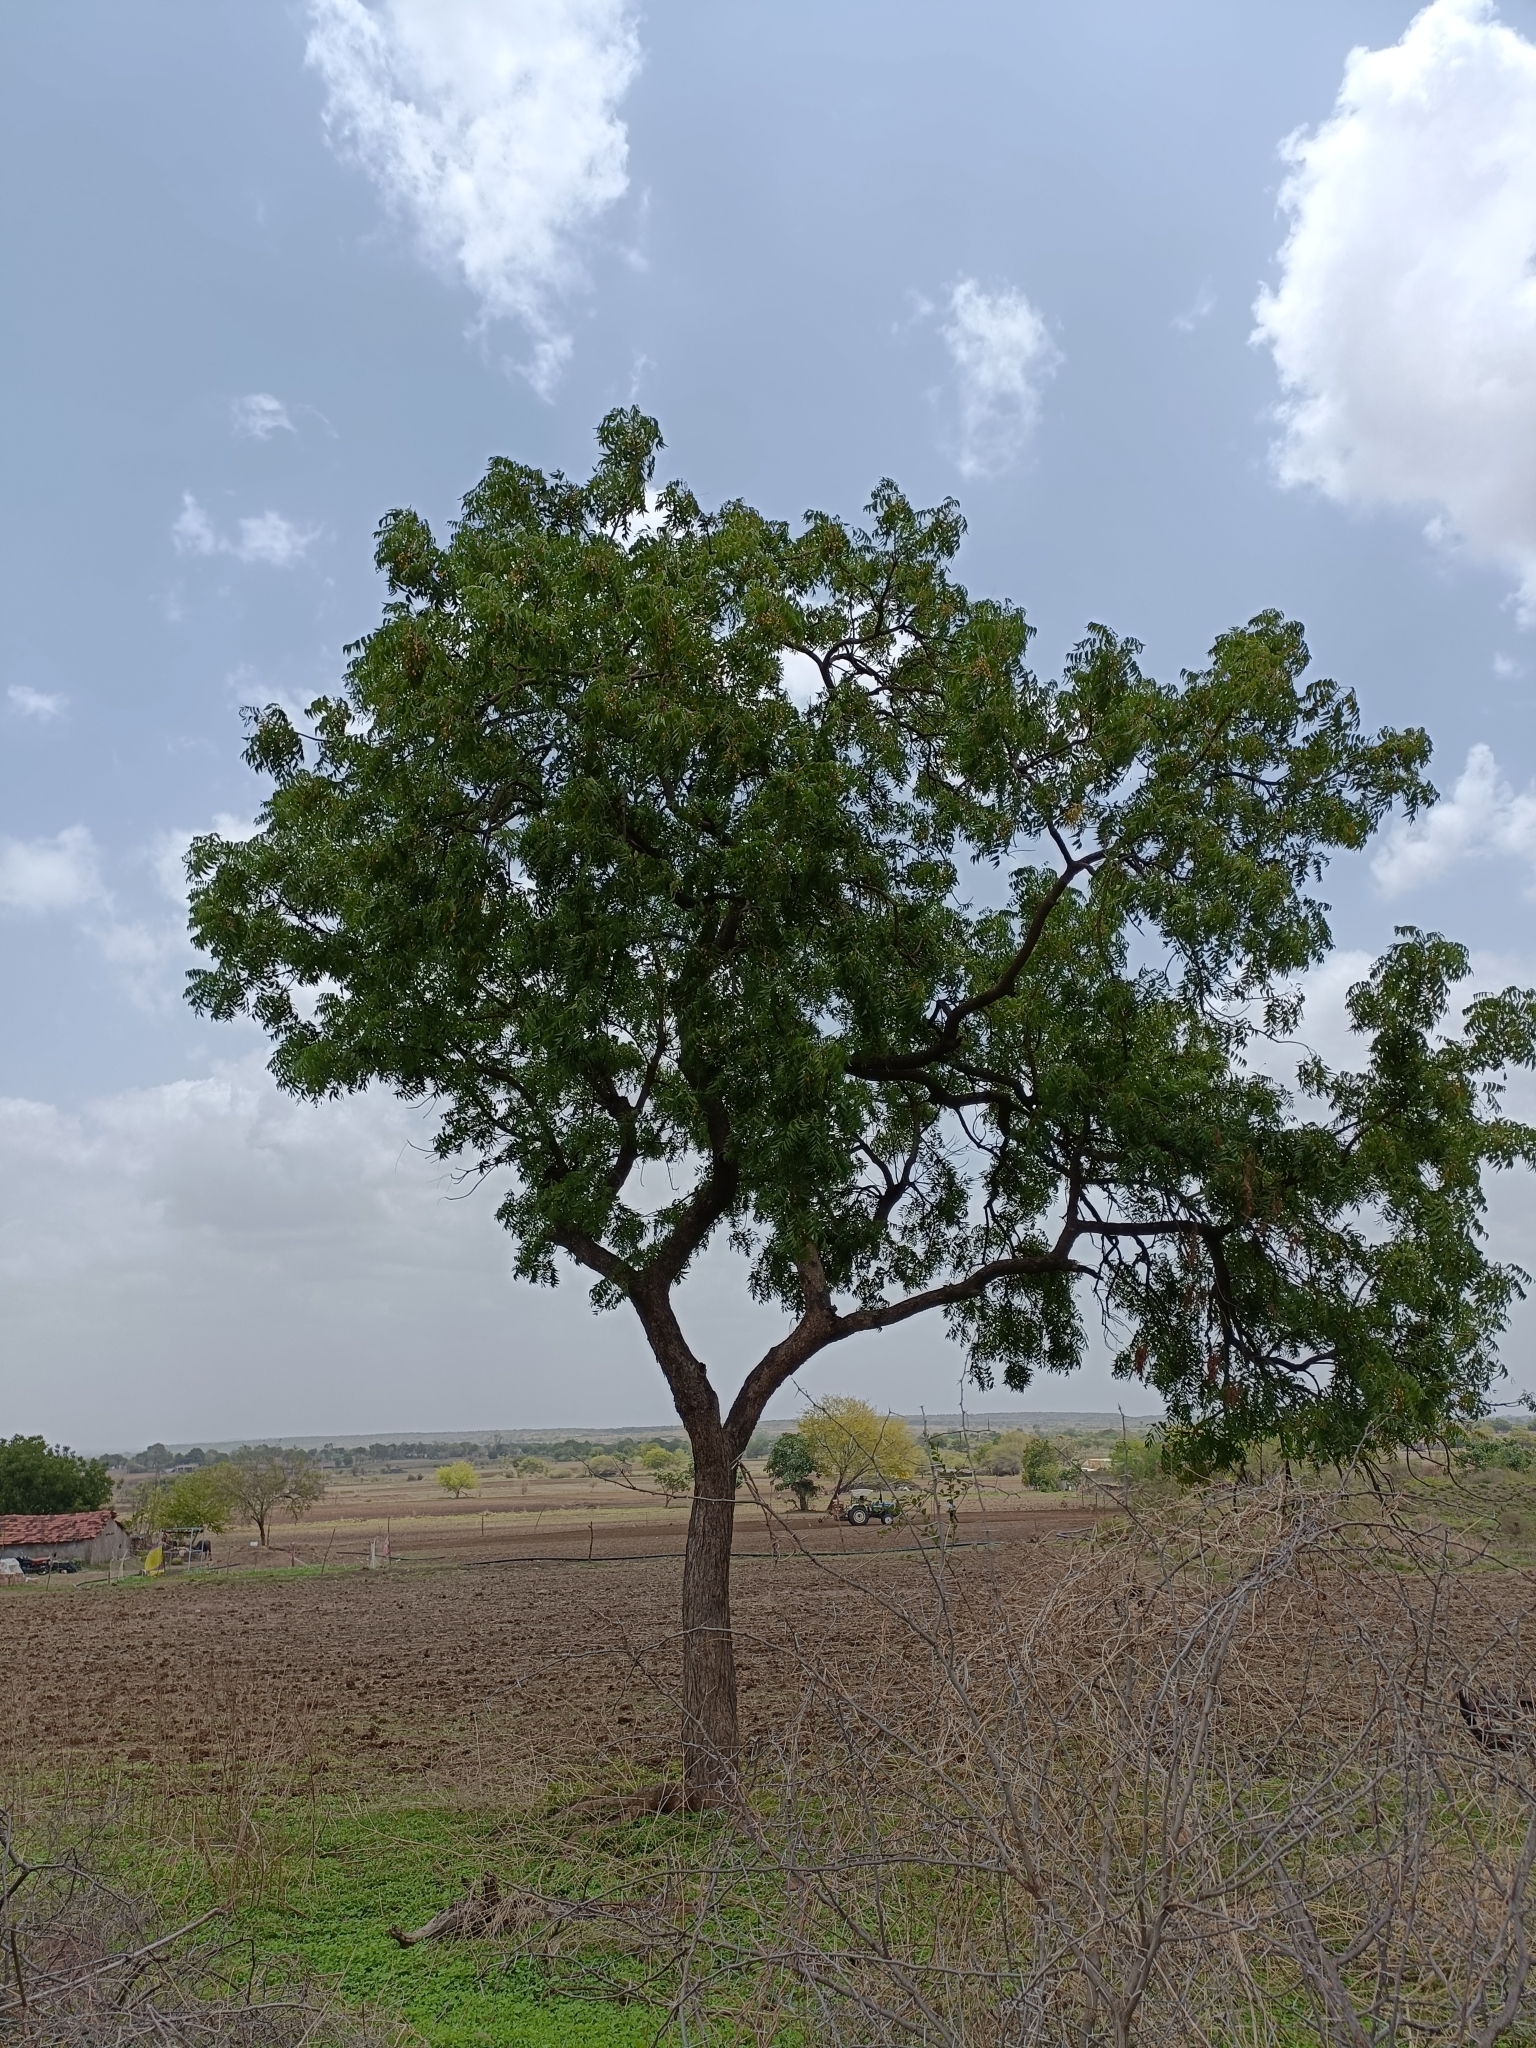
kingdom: Plantae
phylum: Tracheophyta
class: Magnoliopsida
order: Sapindales
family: Meliaceae
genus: Azadirachta
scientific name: Azadirachta indica
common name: Neem
